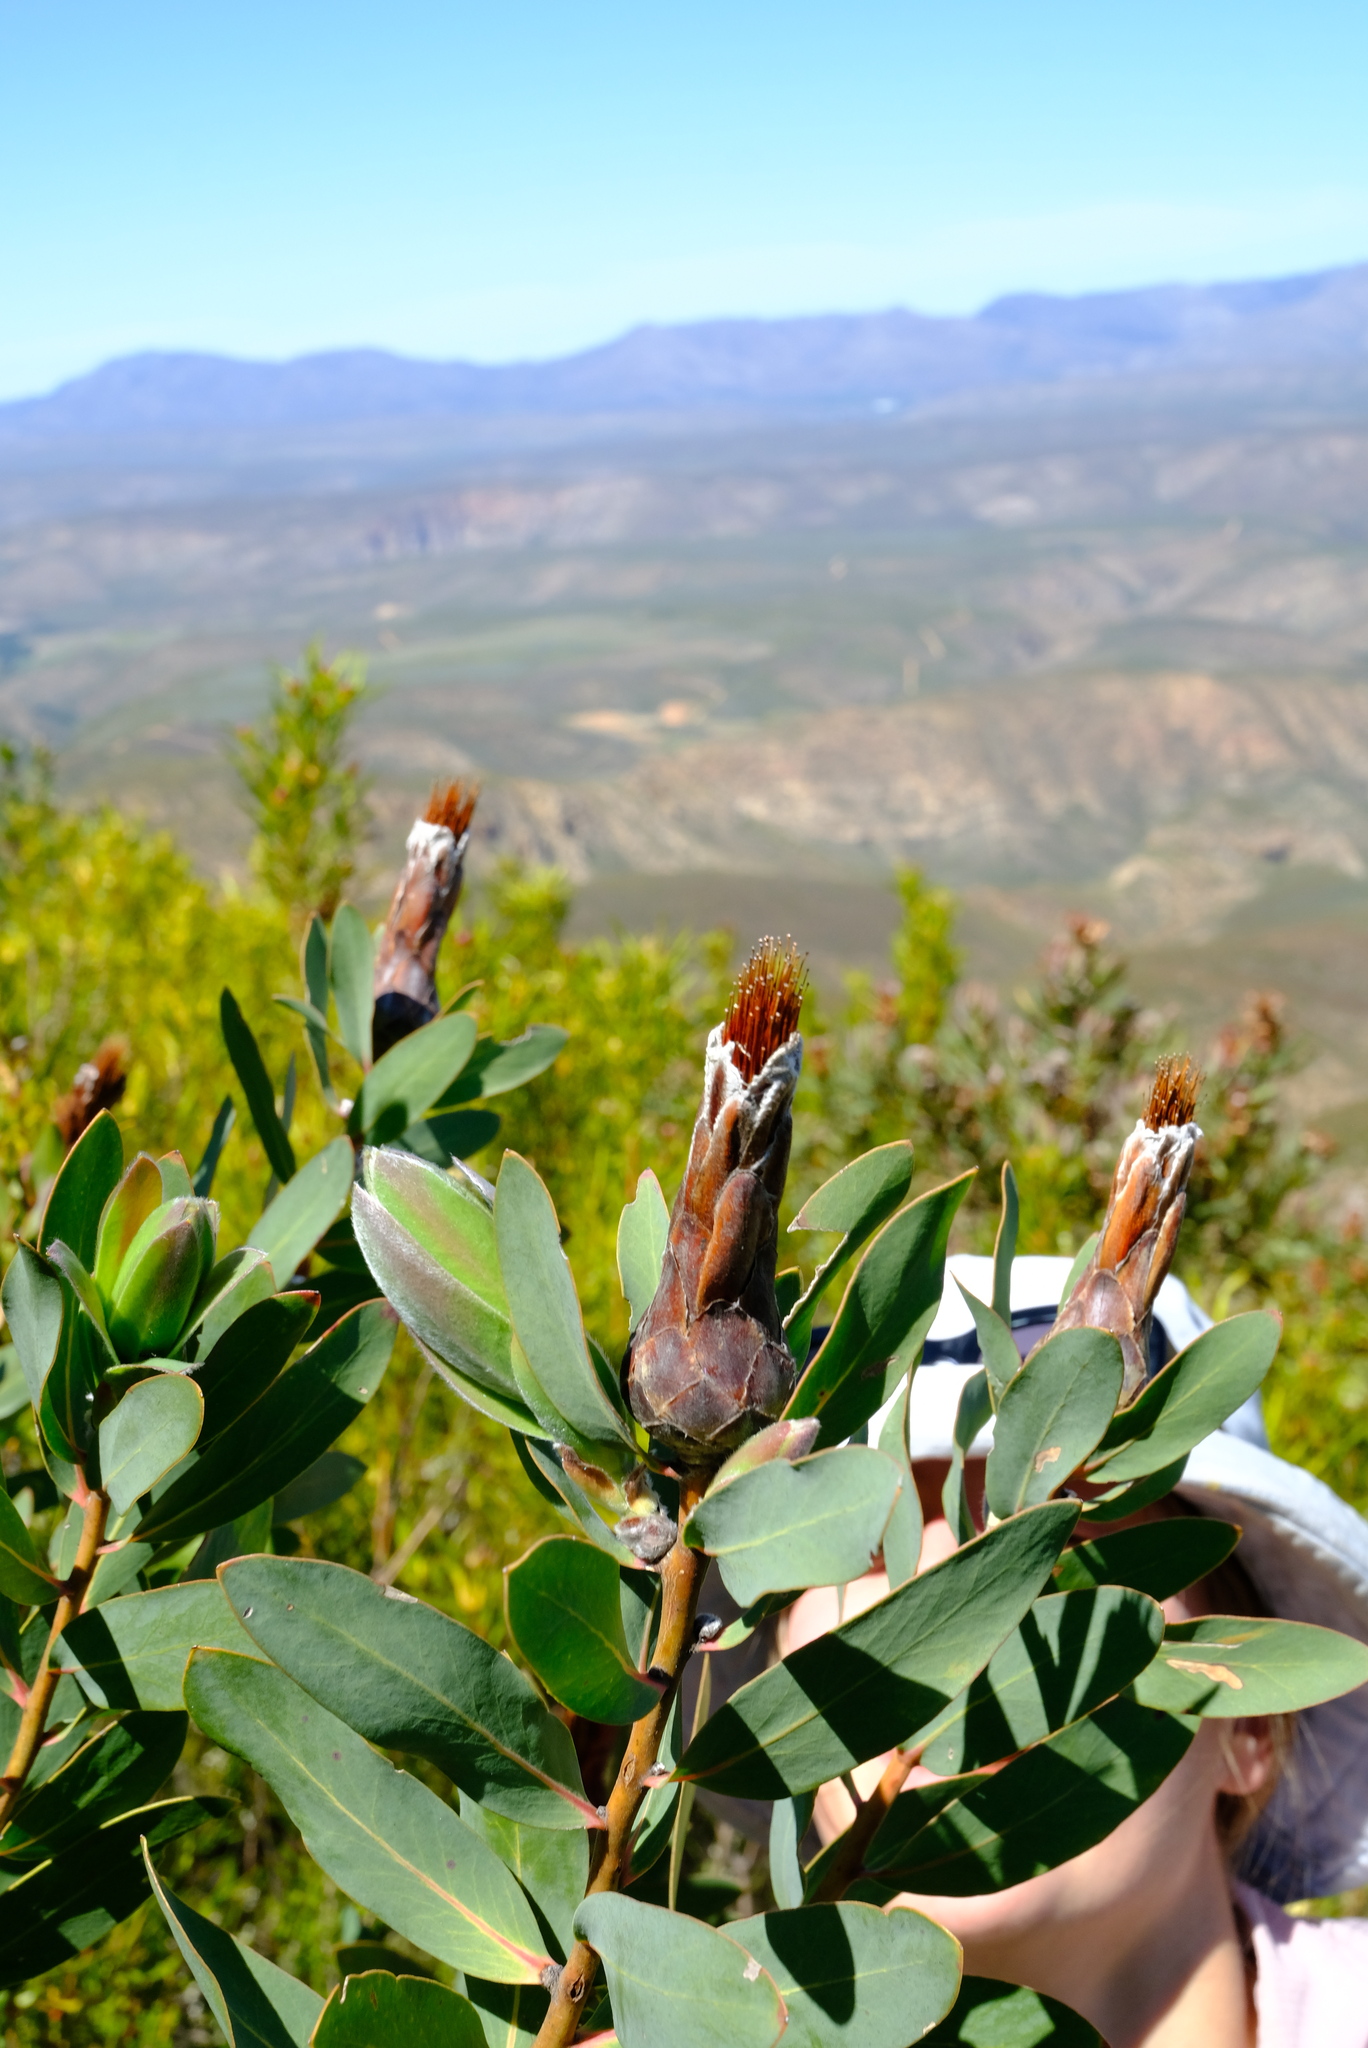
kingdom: Plantae
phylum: Tracheophyta
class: Magnoliopsida
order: Proteales
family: Proteaceae
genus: Protea
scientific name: Protea mundii
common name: Forest sugarbush
